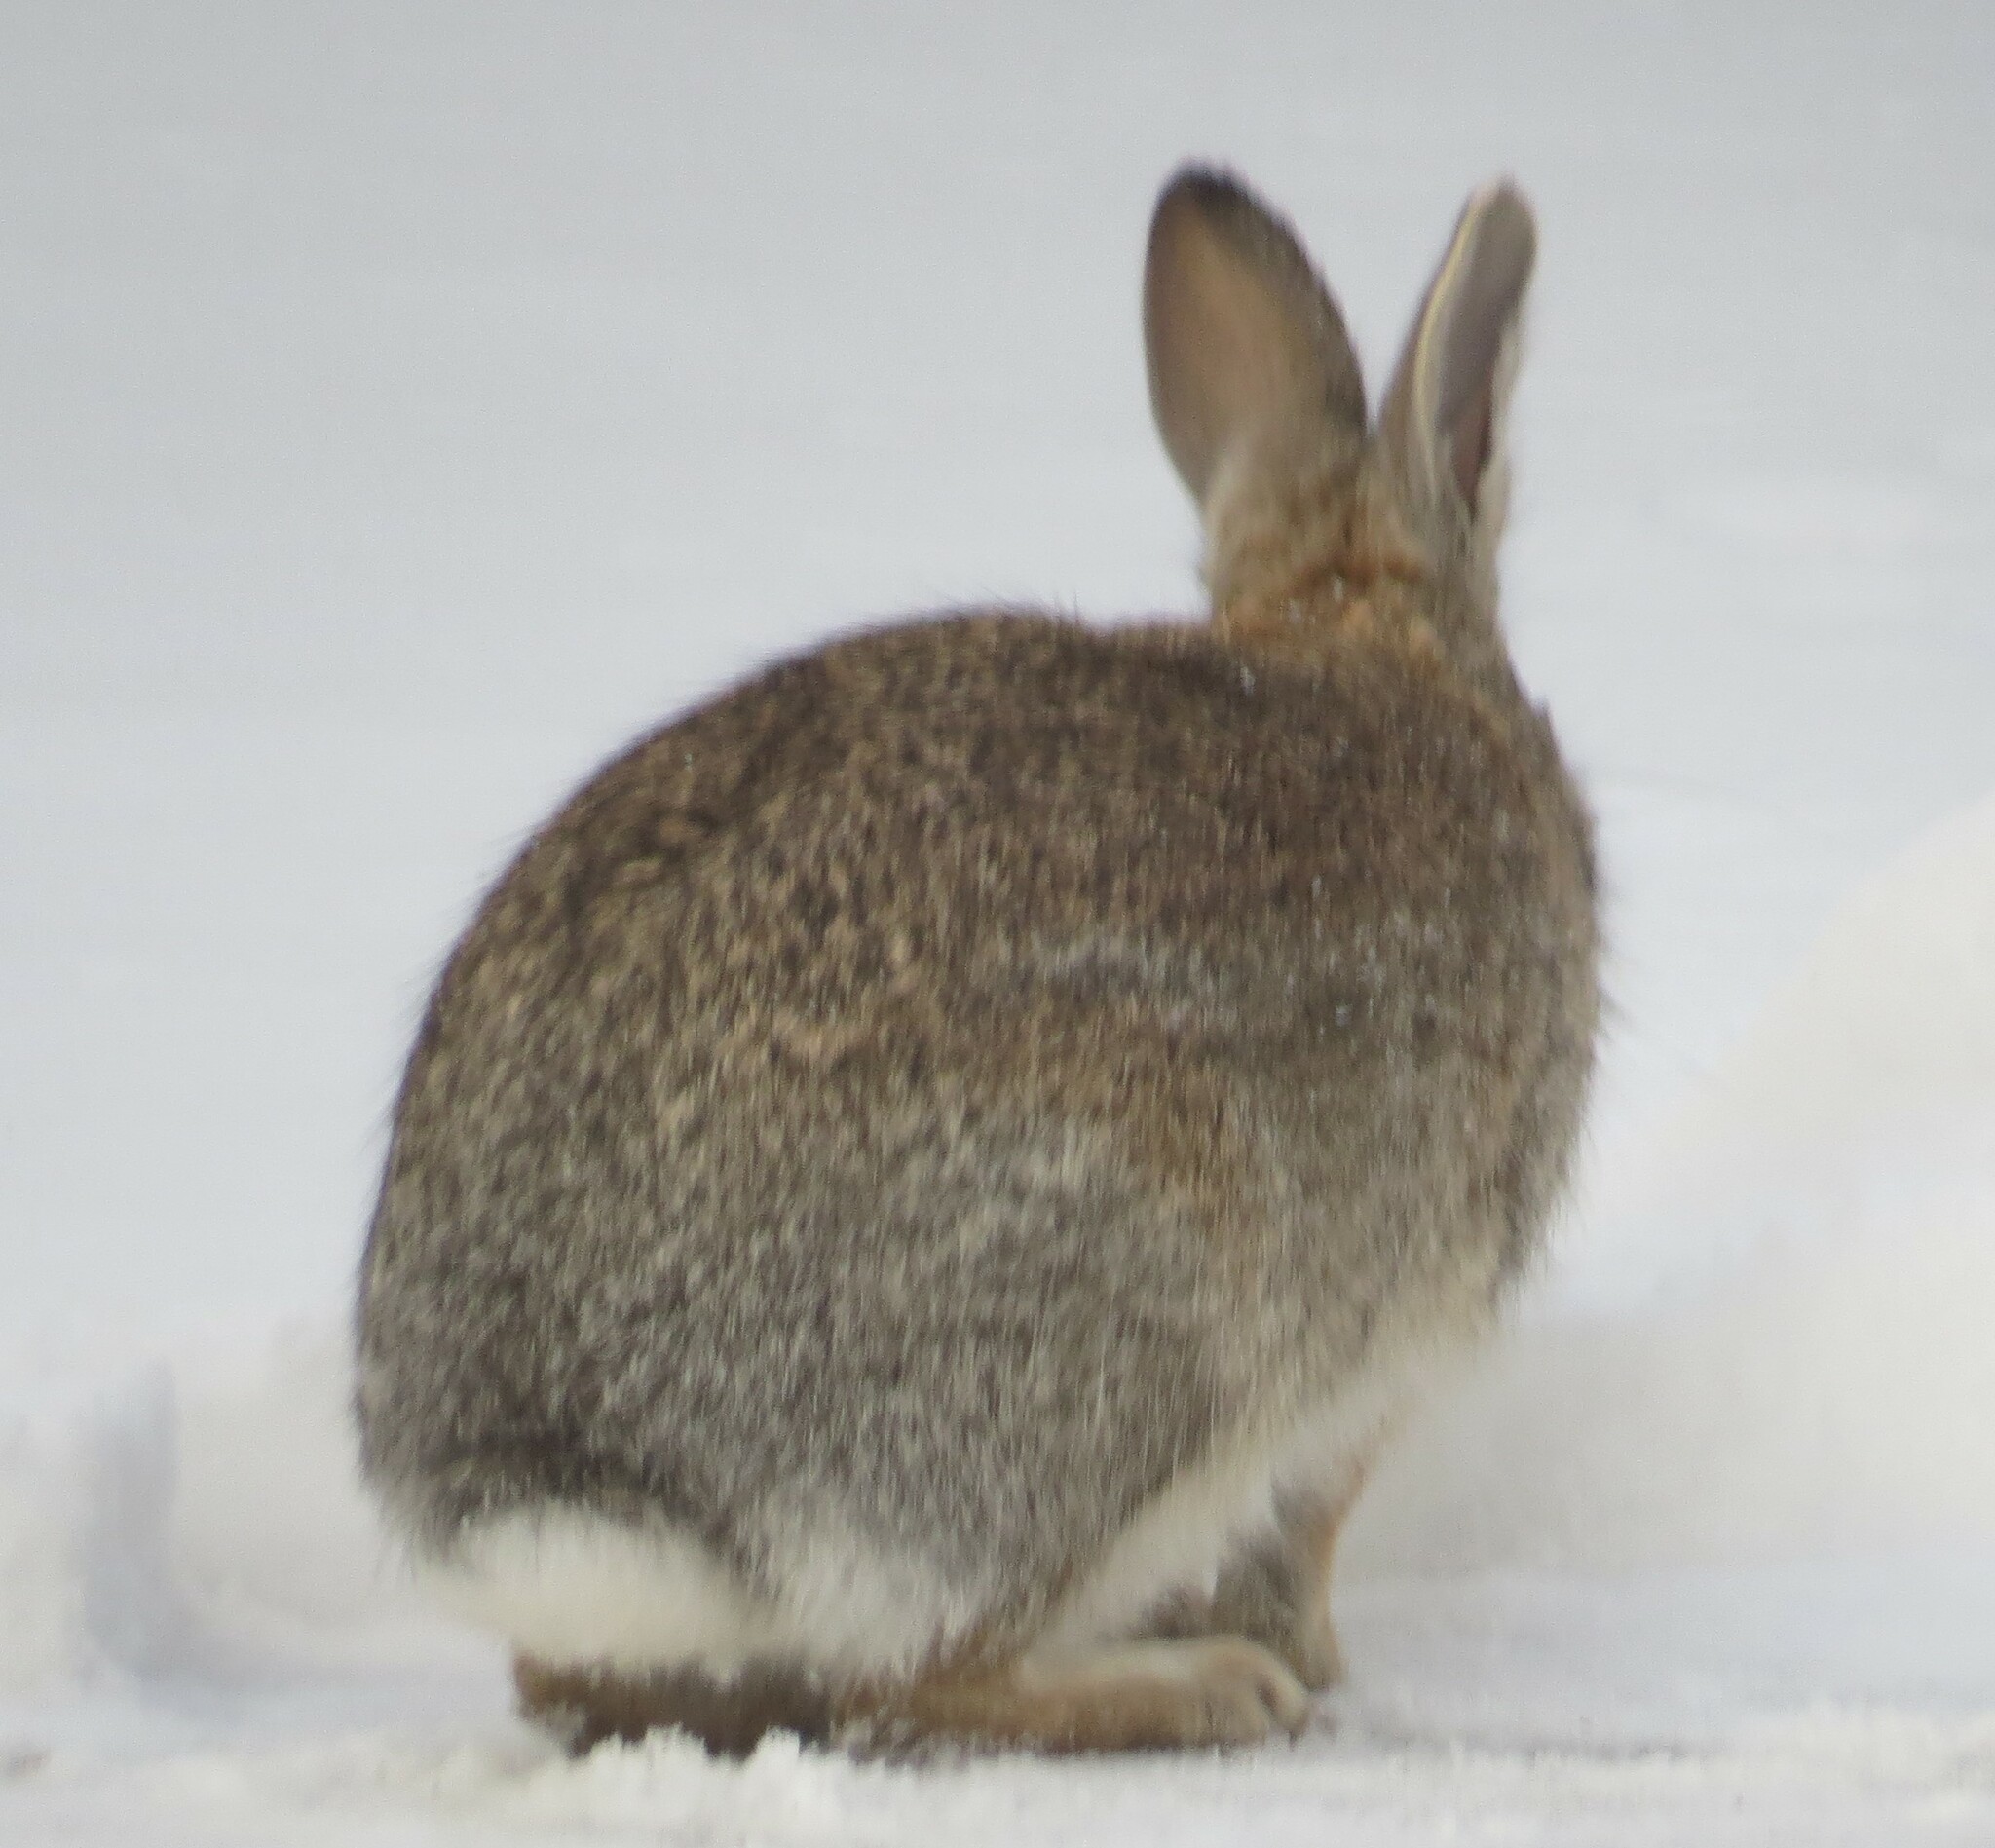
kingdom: Animalia
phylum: Chordata
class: Mammalia
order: Lagomorpha
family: Leporidae
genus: Sylvilagus
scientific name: Sylvilagus floridanus
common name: Eastern cottontail
